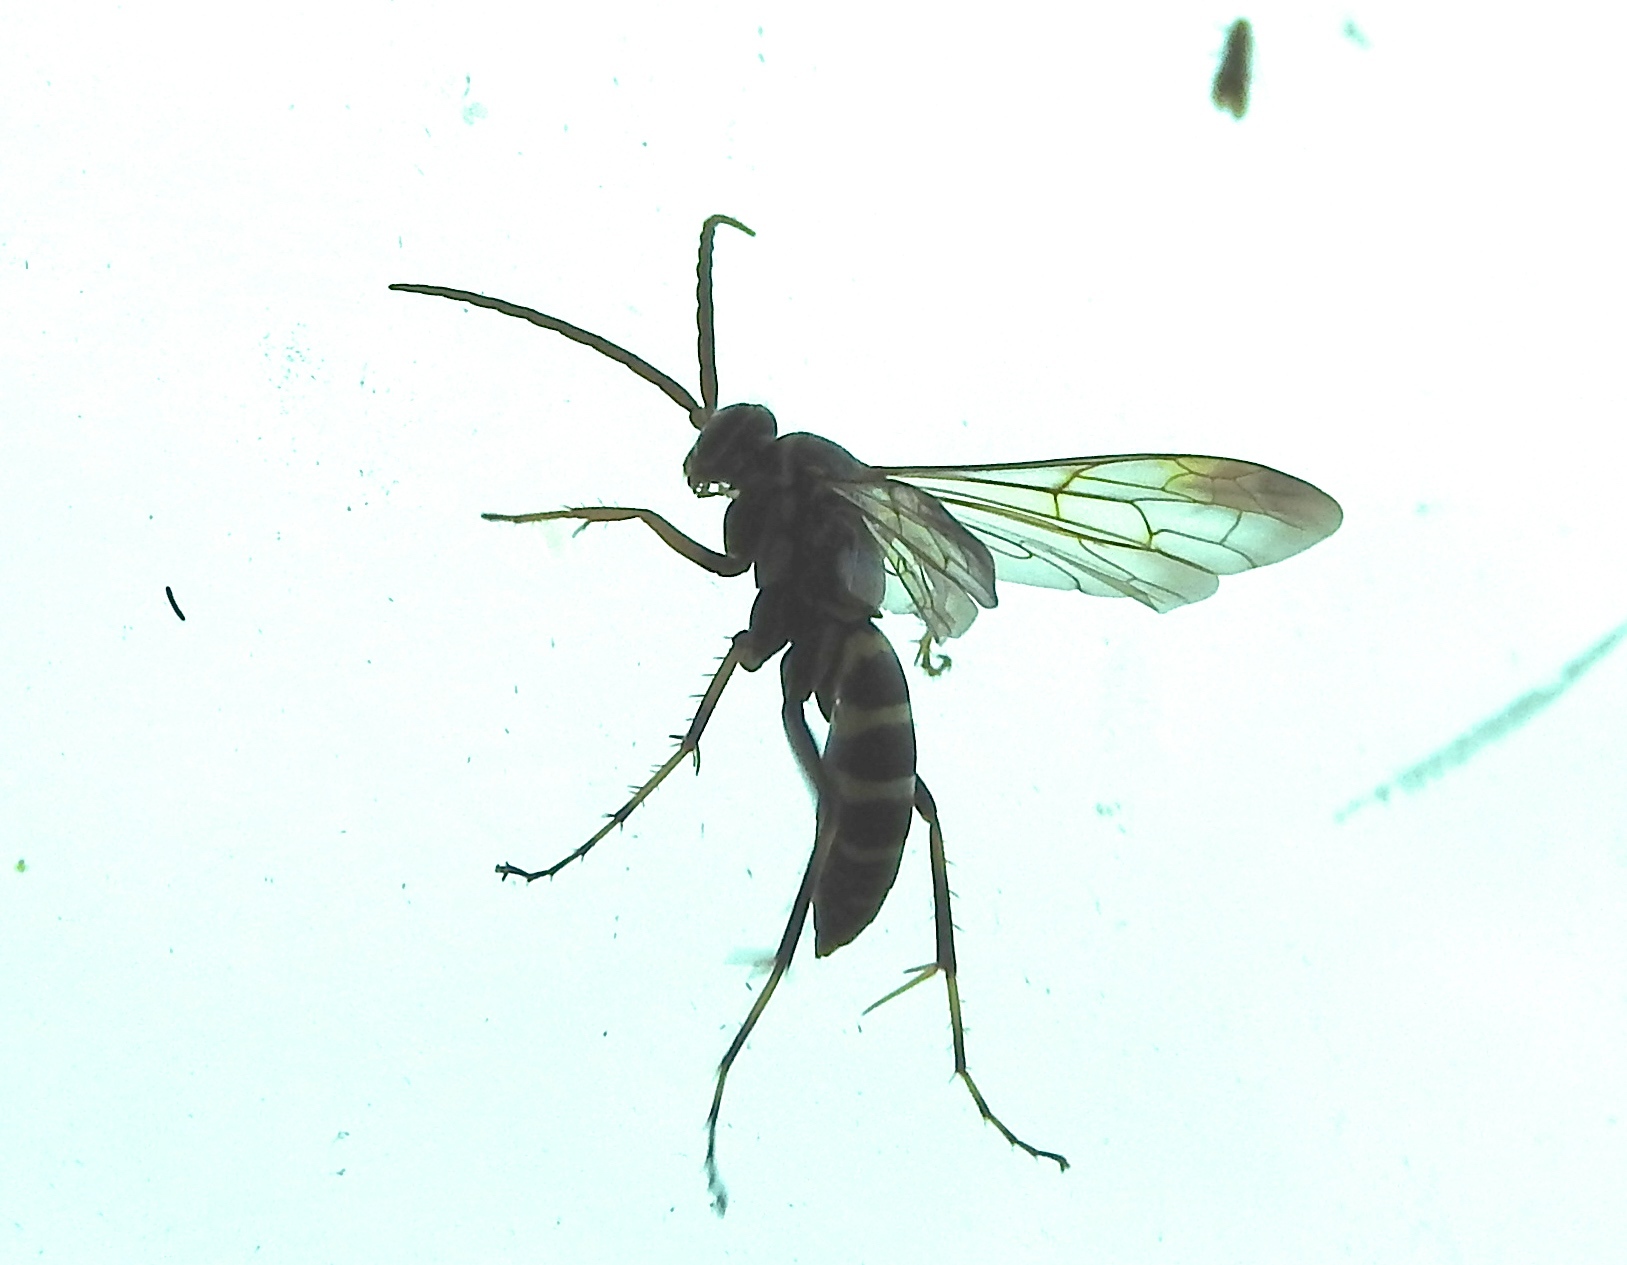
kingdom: Animalia
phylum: Arthropoda
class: Insecta
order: Hymenoptera
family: Pompilidae
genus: Poecilopompilus
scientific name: Poecilopompilus
